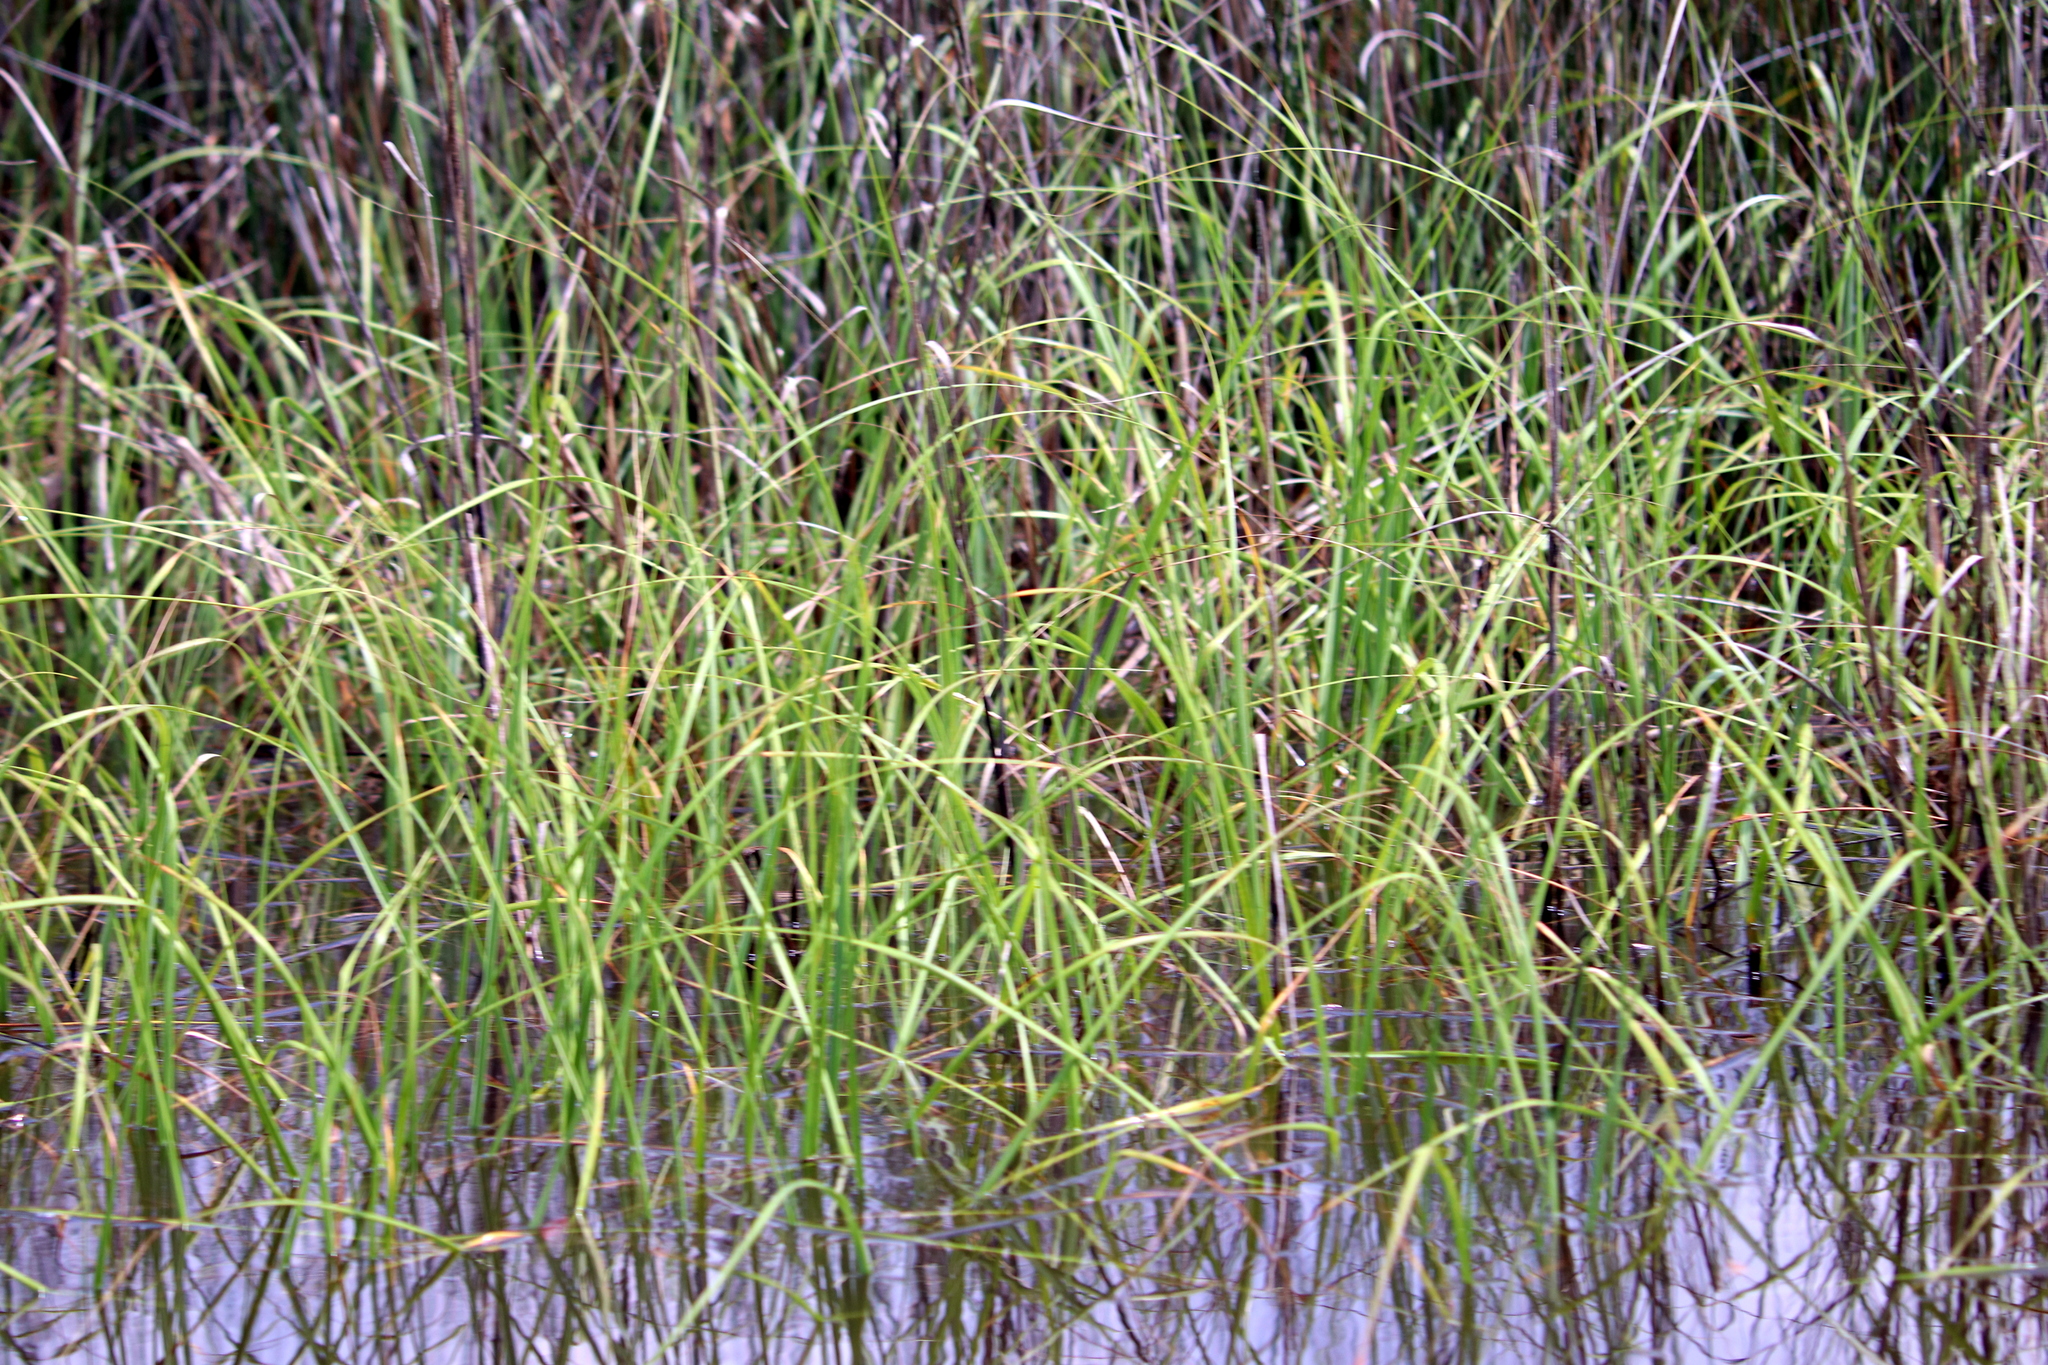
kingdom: Plantae
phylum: Tracheophyta
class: Liliopsida
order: Poales
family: Poaceae
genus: Sporobolus
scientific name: Sporobolus alterniflorus
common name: Atlantic cordgrass
